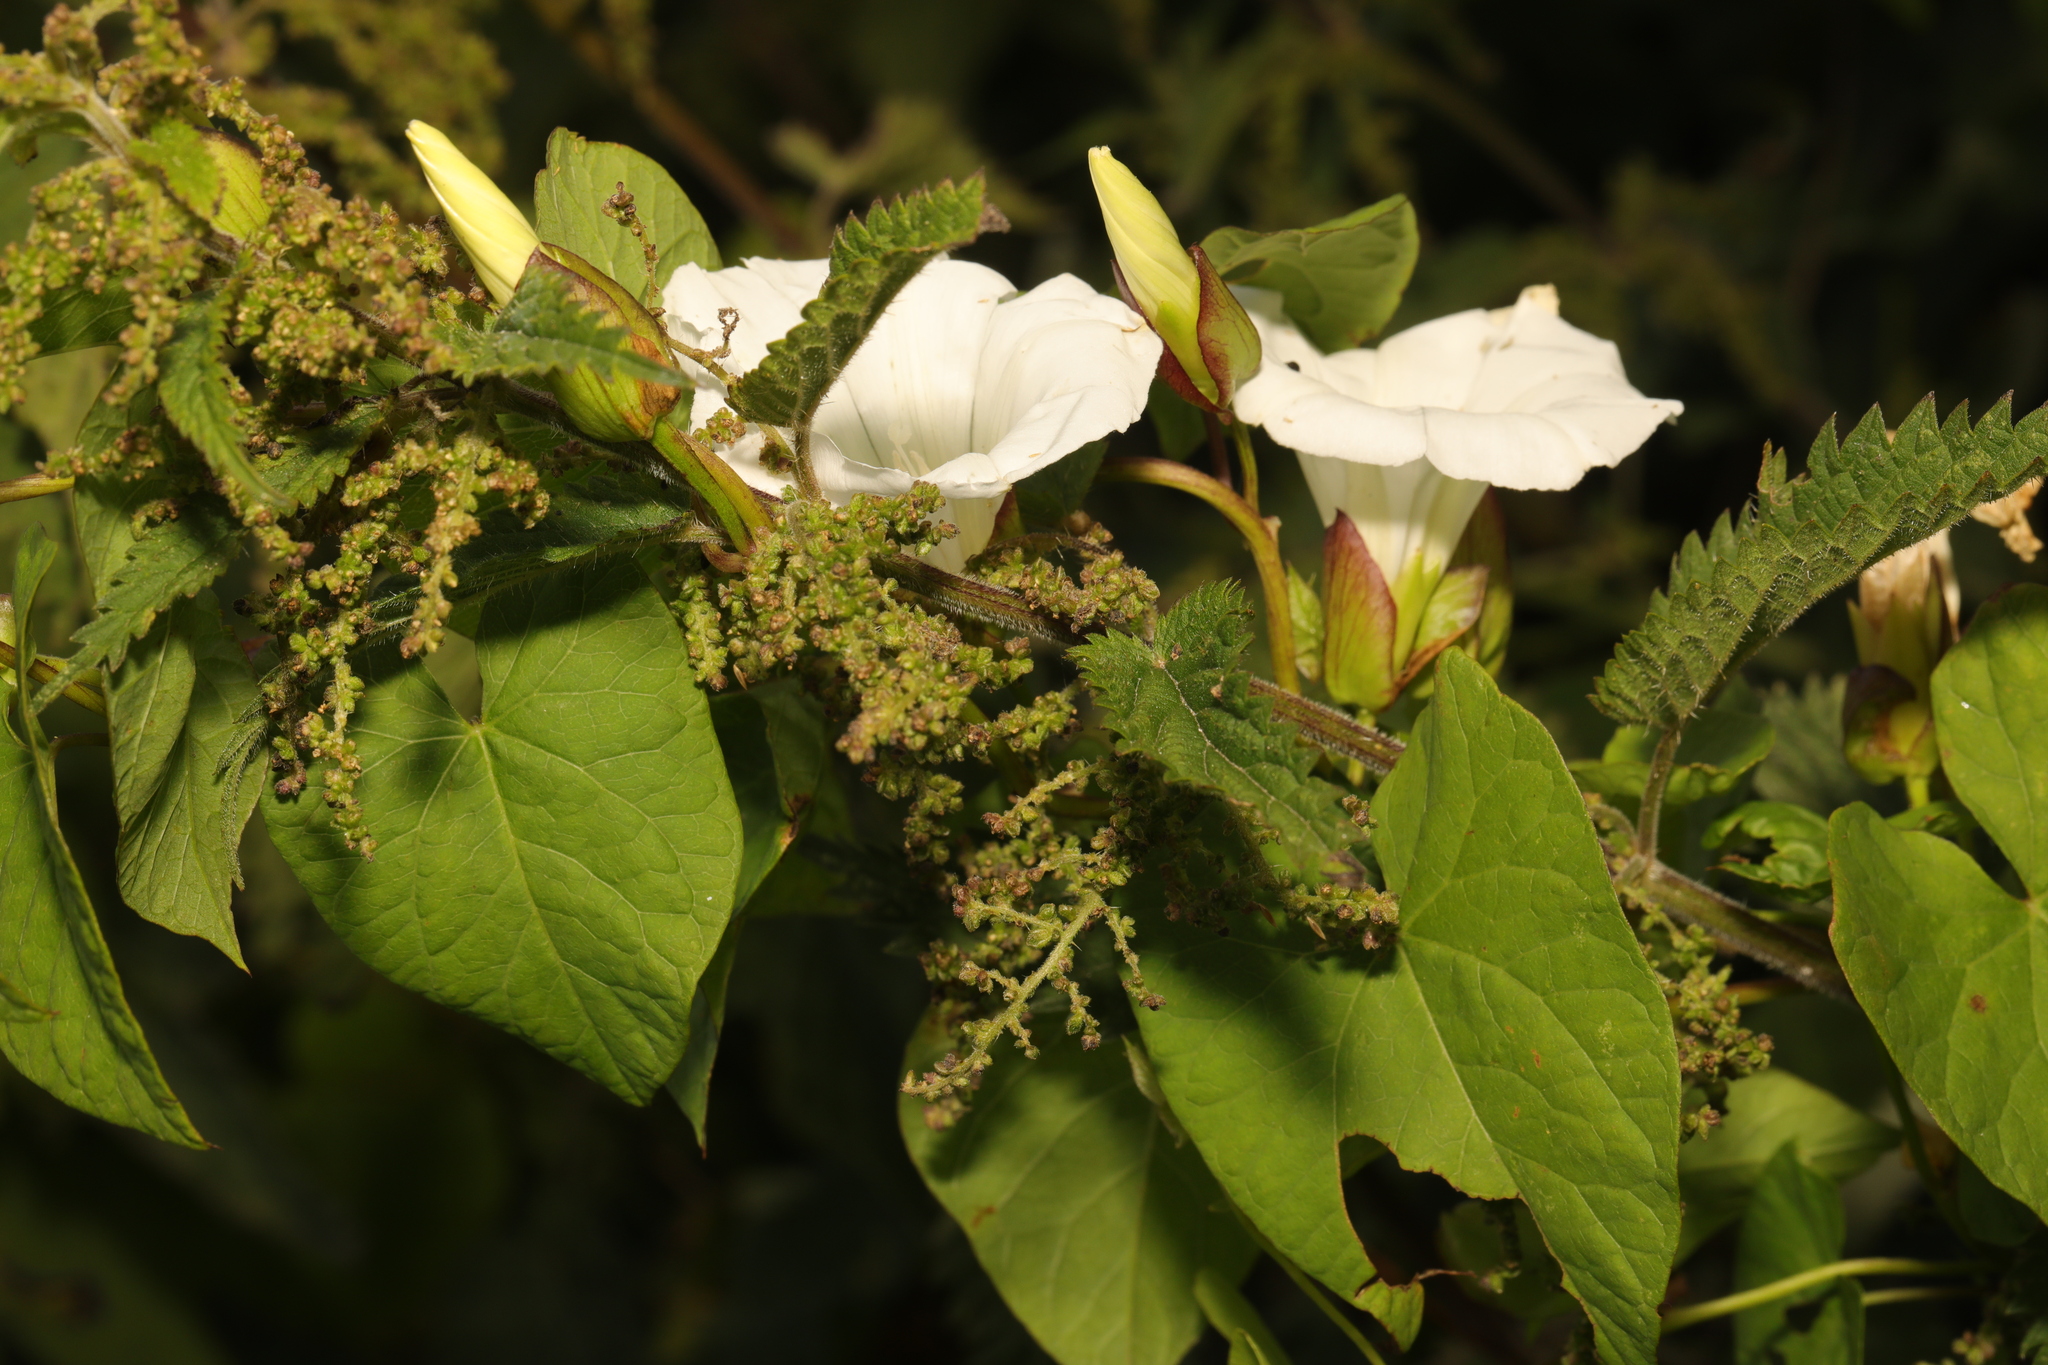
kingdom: Plantae
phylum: Tracheophyta
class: Magnoliopsida
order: Solanales
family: Convolvulaceae
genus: Calystegia
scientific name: Calystegia sepium
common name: Hedge bindweed
